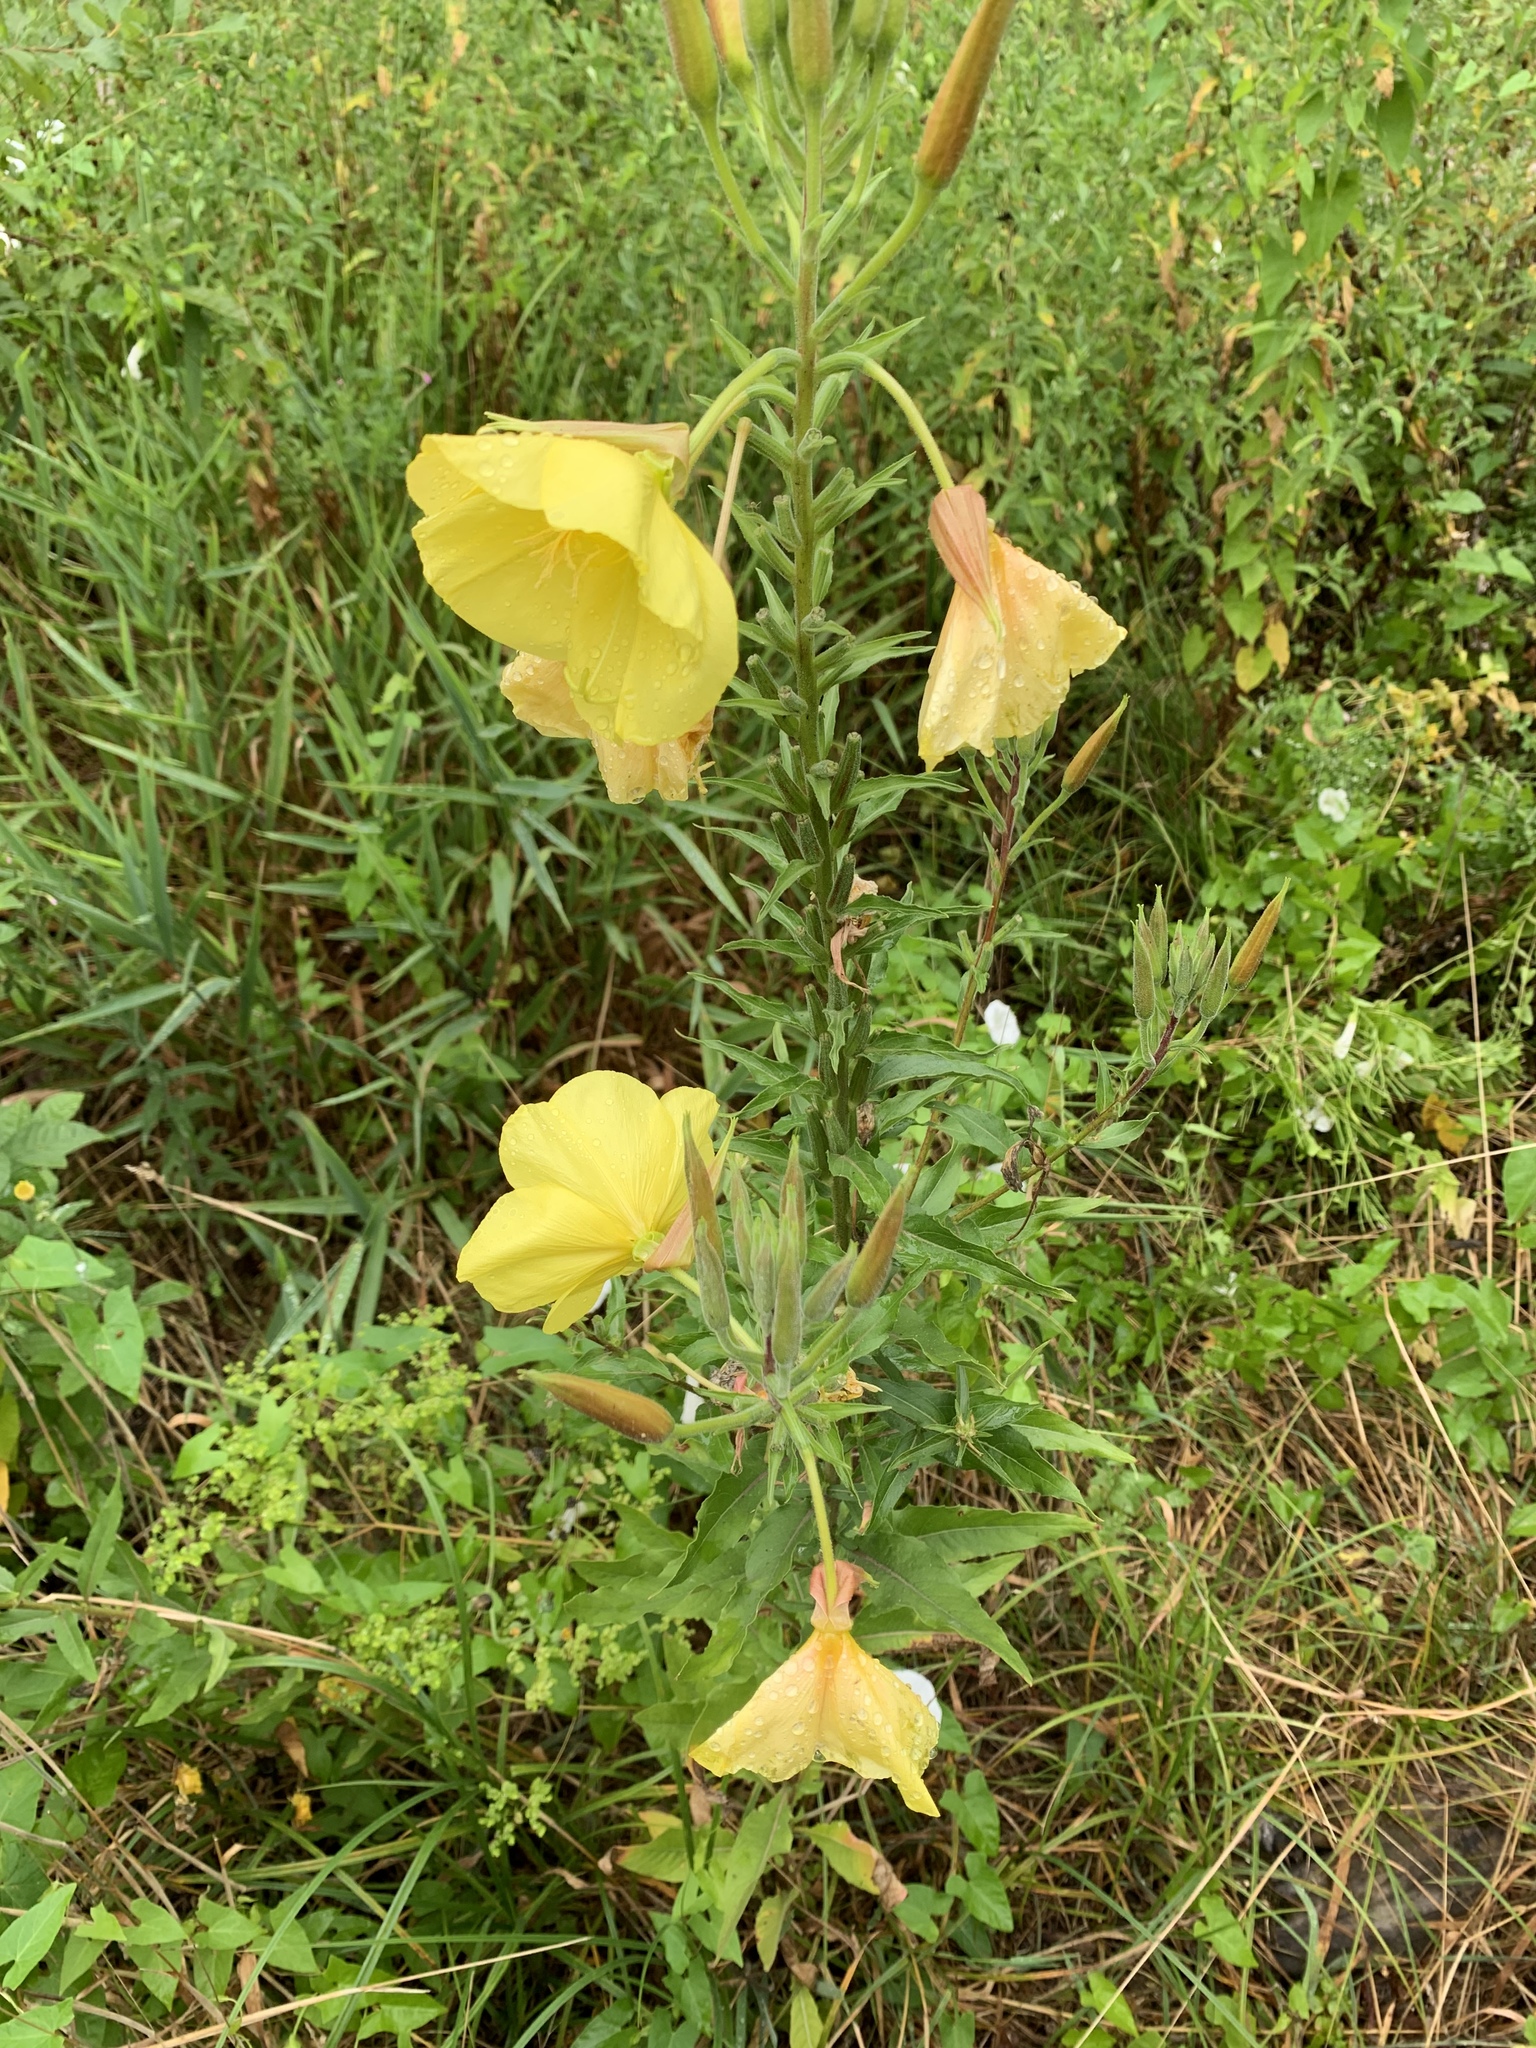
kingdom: Plantae
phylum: Tracheophyta
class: Magnoliopsida
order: Myrtales
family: Onagraceae
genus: Oenothera
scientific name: Oenothera glazioviana
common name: Large-flowered evening-primrose
